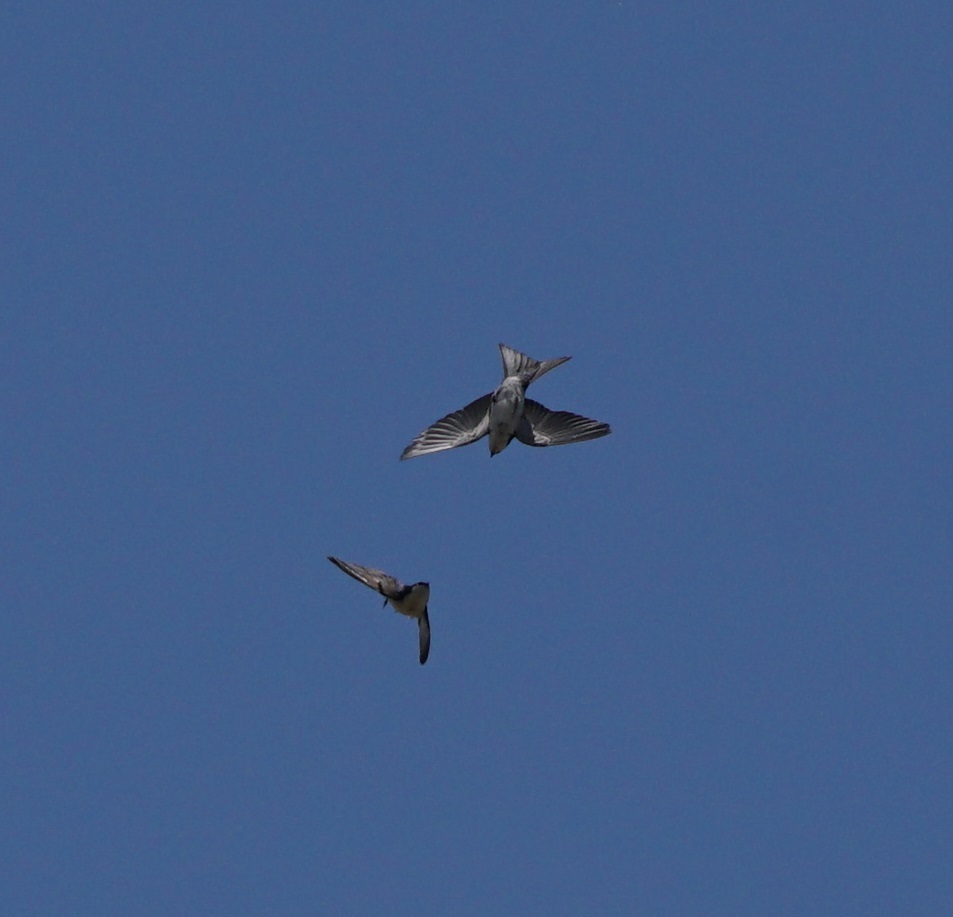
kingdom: Animalia
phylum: Chordata
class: Aves
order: Passeriformes
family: Hirundinidae
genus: Notiochelidon
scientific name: Notiochelidon murina
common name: Brown-bellied swallow
